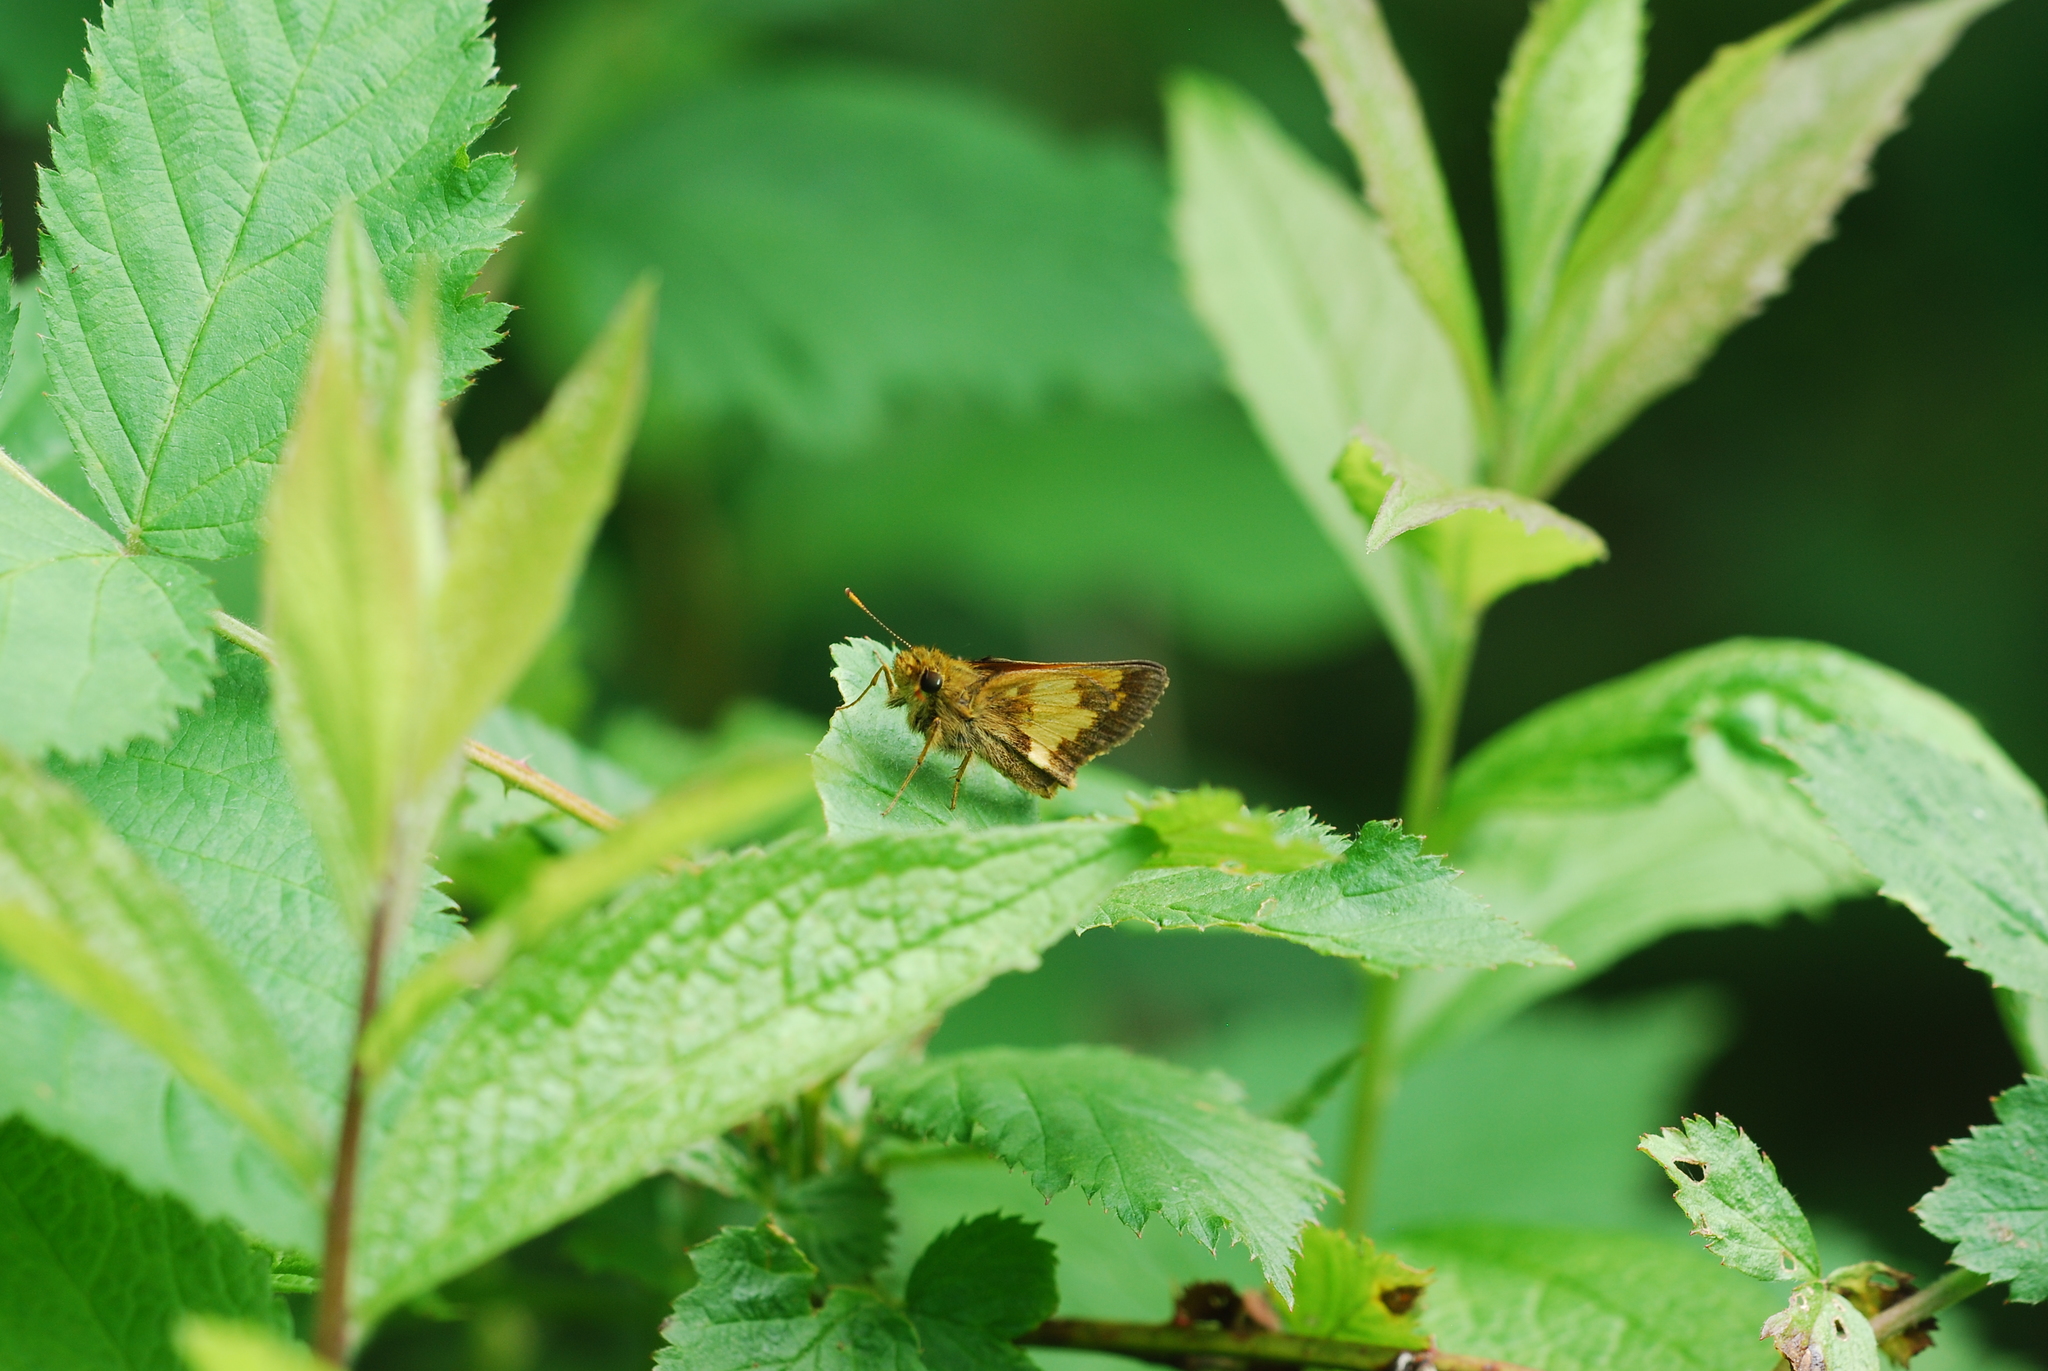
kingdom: Animalia
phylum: Arthropoda
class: Insecta
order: Lepidoptera
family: Hesperiidae
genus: Lon
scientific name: Lon hobomok
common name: Hobomok skipper
